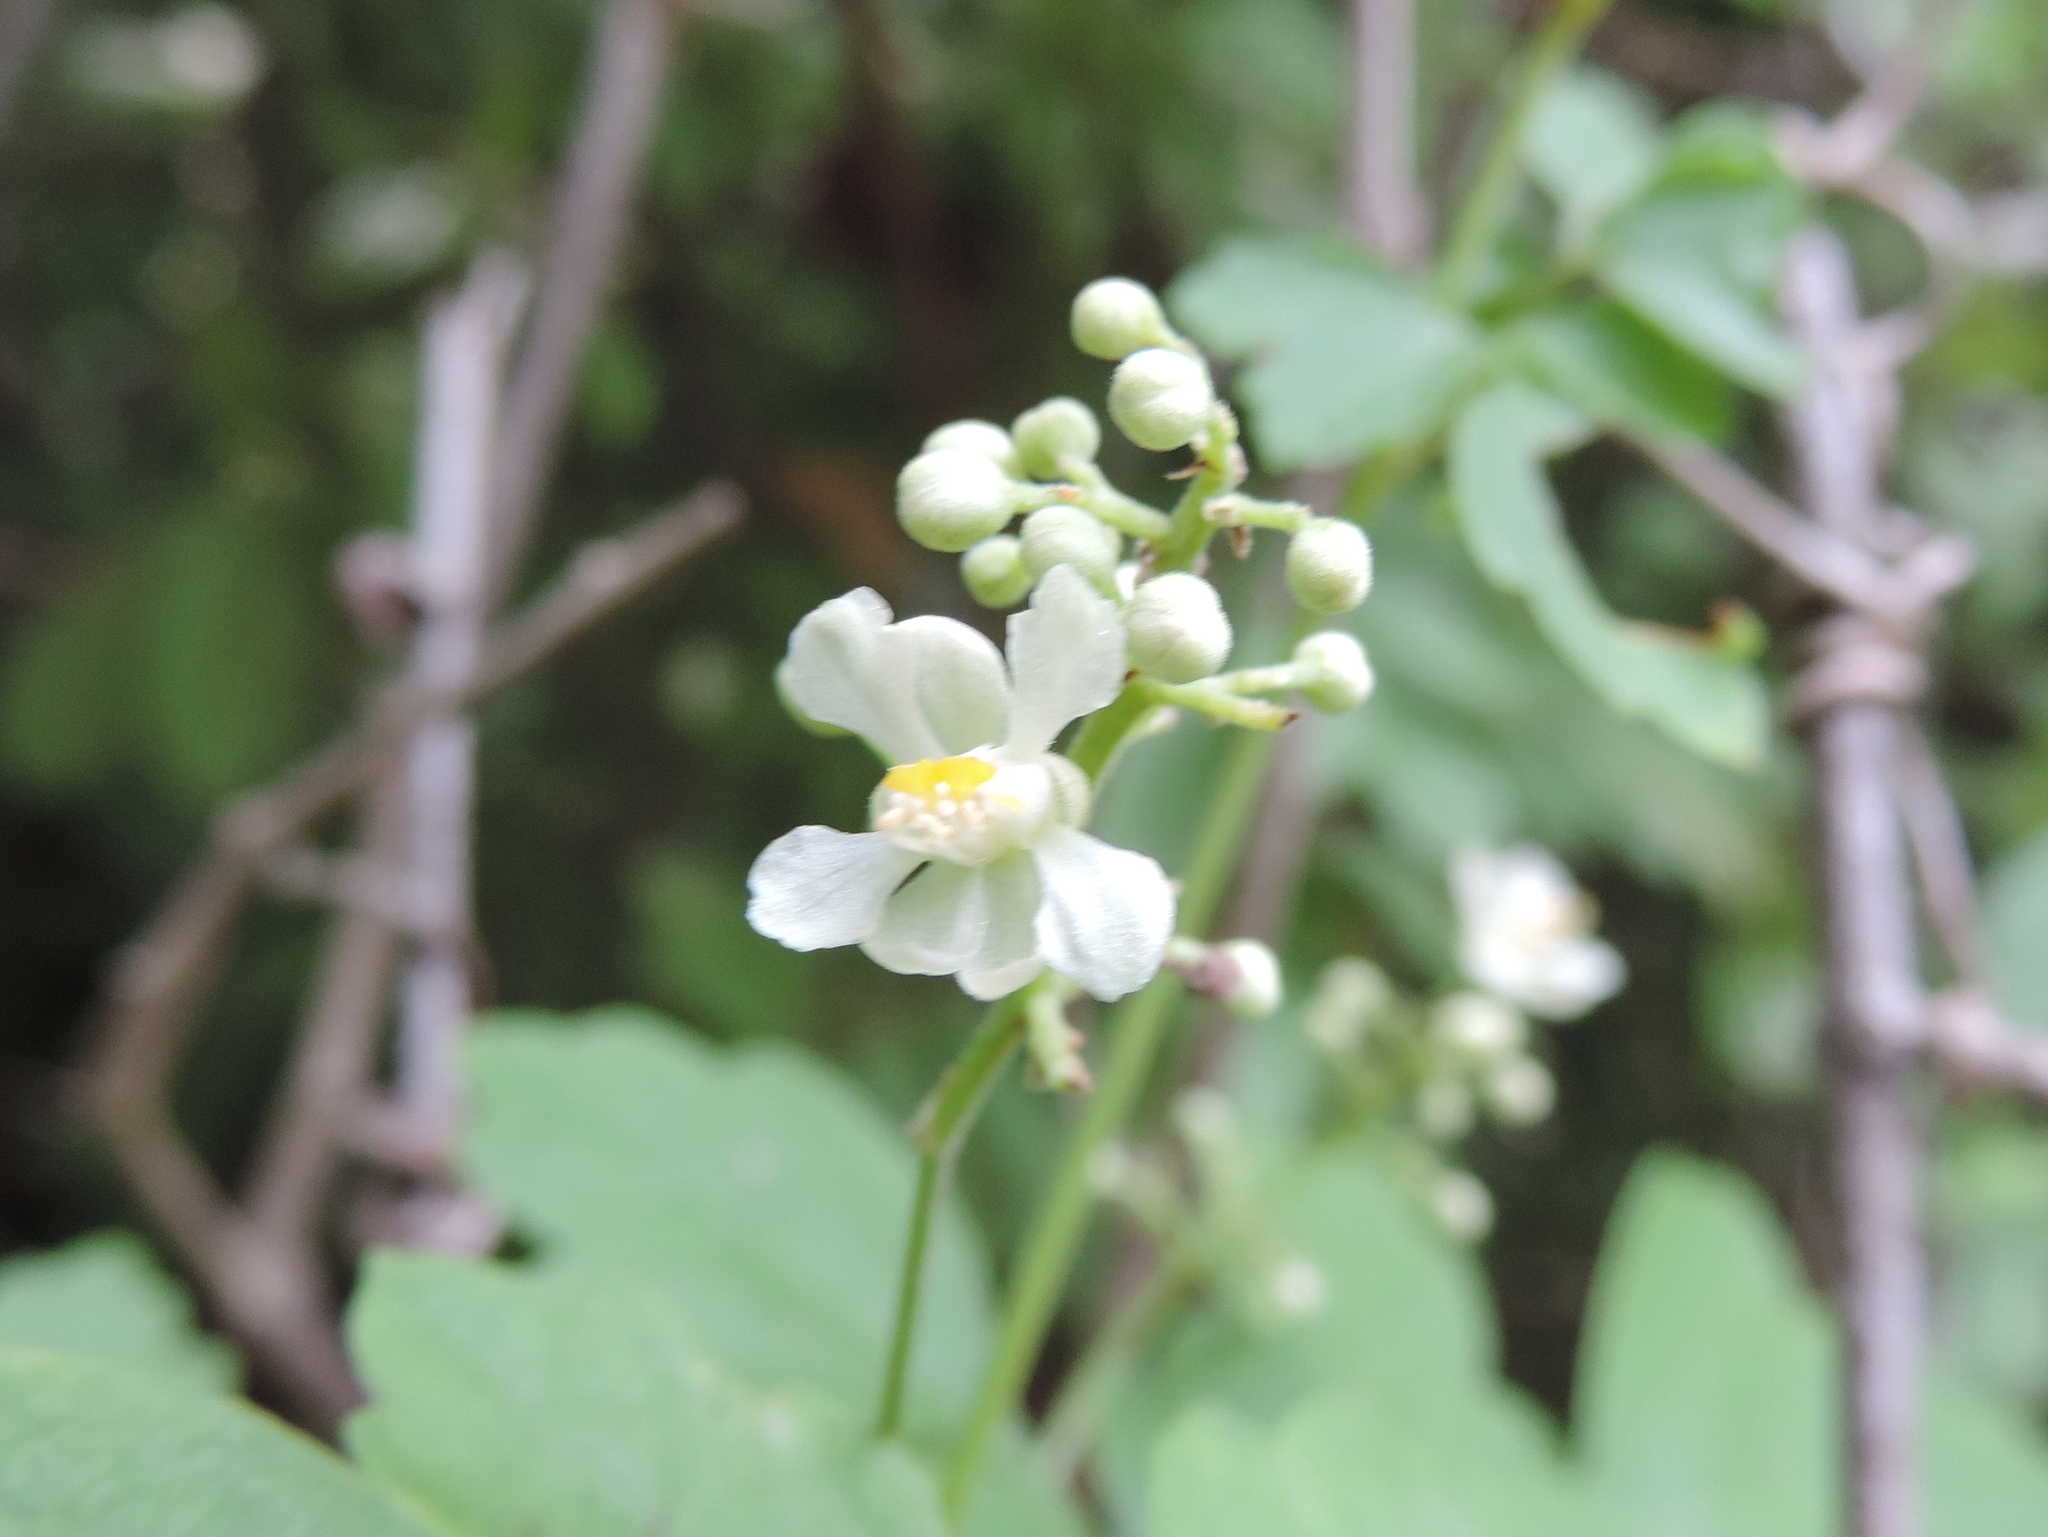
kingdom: Plantae
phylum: Tracheophyta
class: Magnoliopsida
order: Sapindales
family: Sapindaceae
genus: Paullinia
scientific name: Paullinia fuscescens
